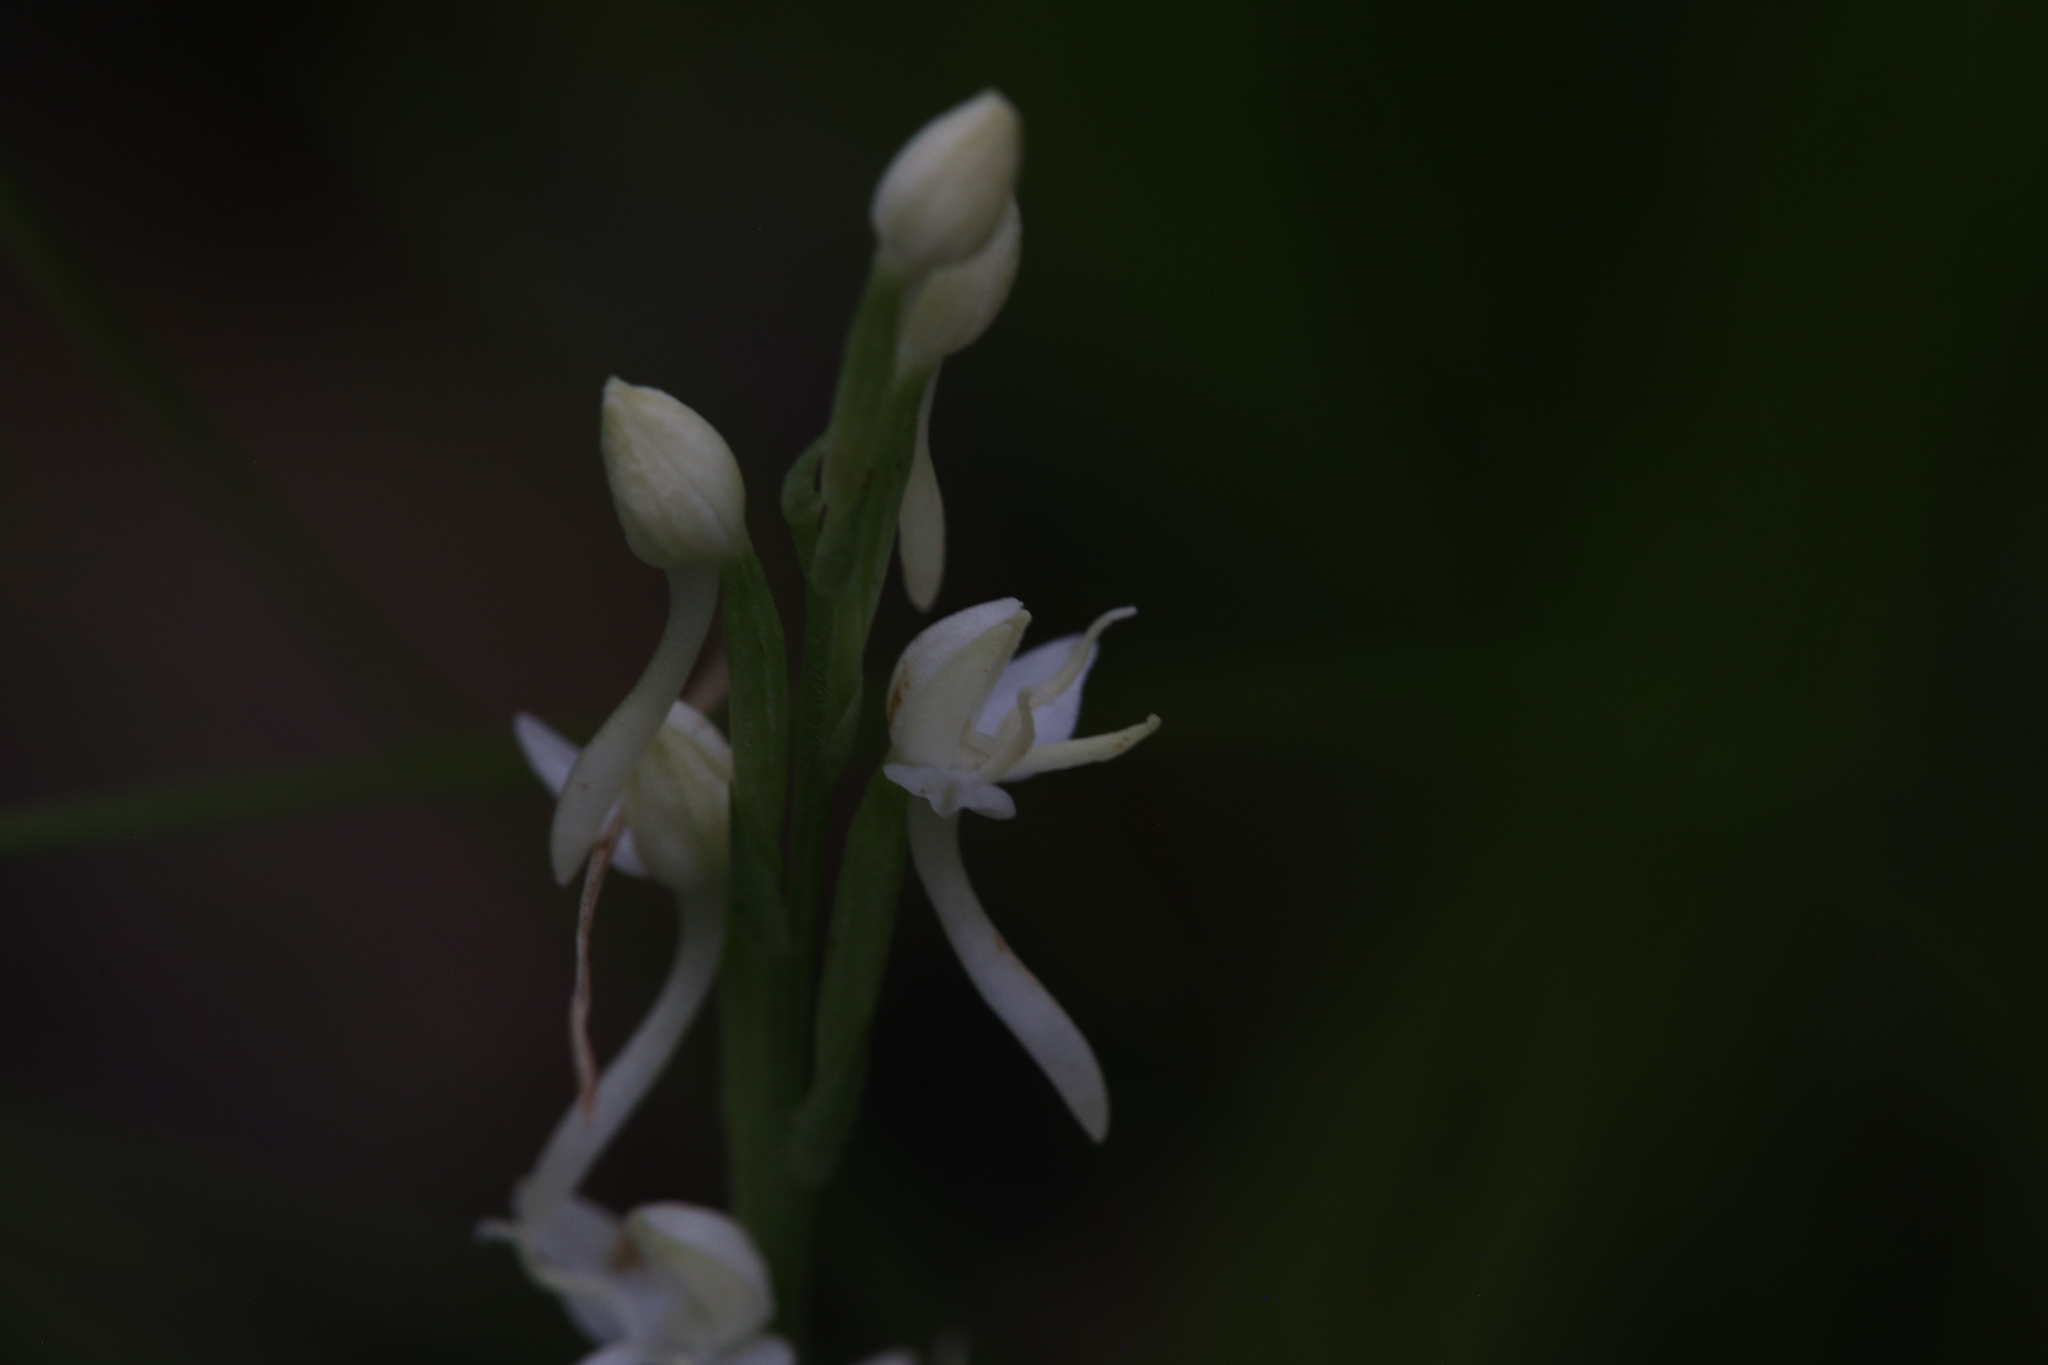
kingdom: Plantae
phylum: Tracheophyta
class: Liliopsida
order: Asparagales
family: Orchidaceae
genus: Habenaria
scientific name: Habenaria propinquior
